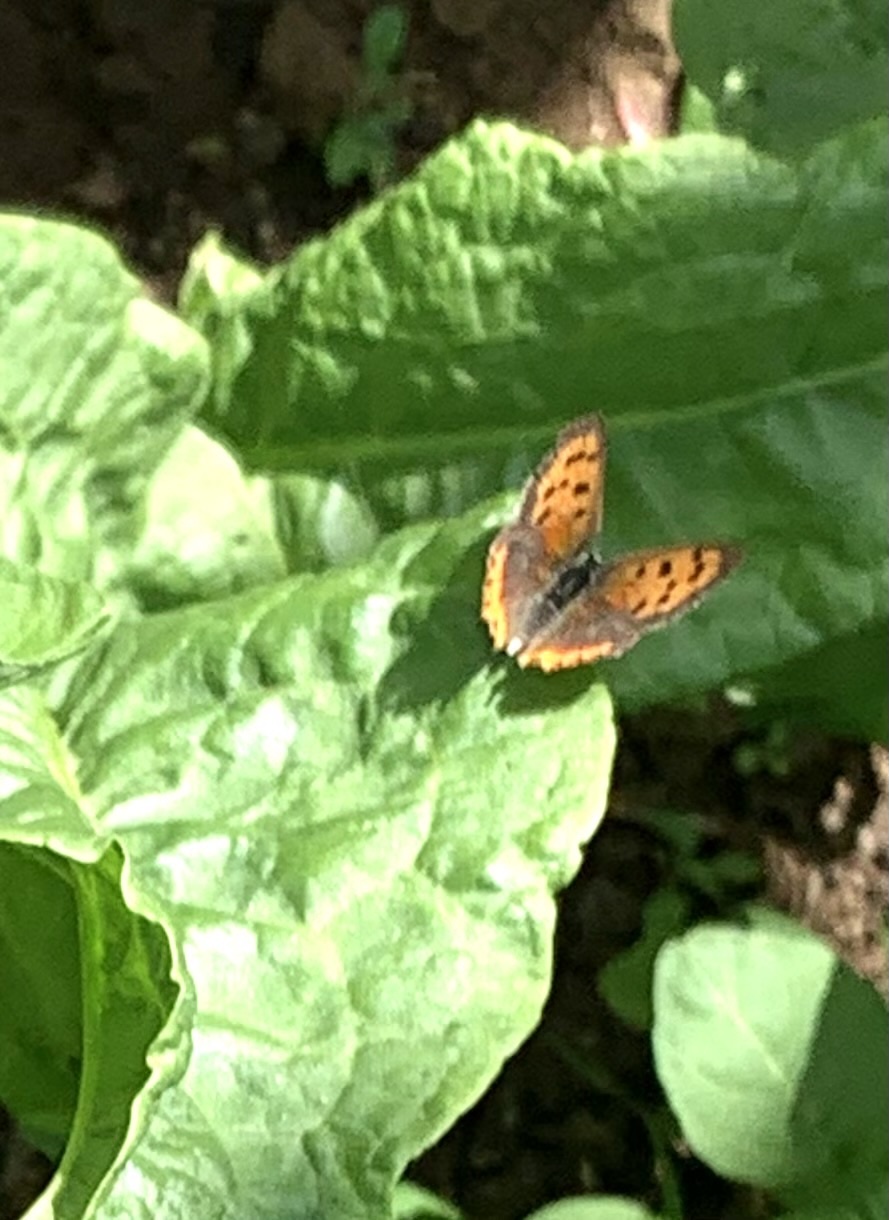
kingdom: Animalia
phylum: Arthropoda
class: Insecta
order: Lepidoptera
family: Lycaenidae
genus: Lycaena
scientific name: Lycaena phlaeas
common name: Small copper
